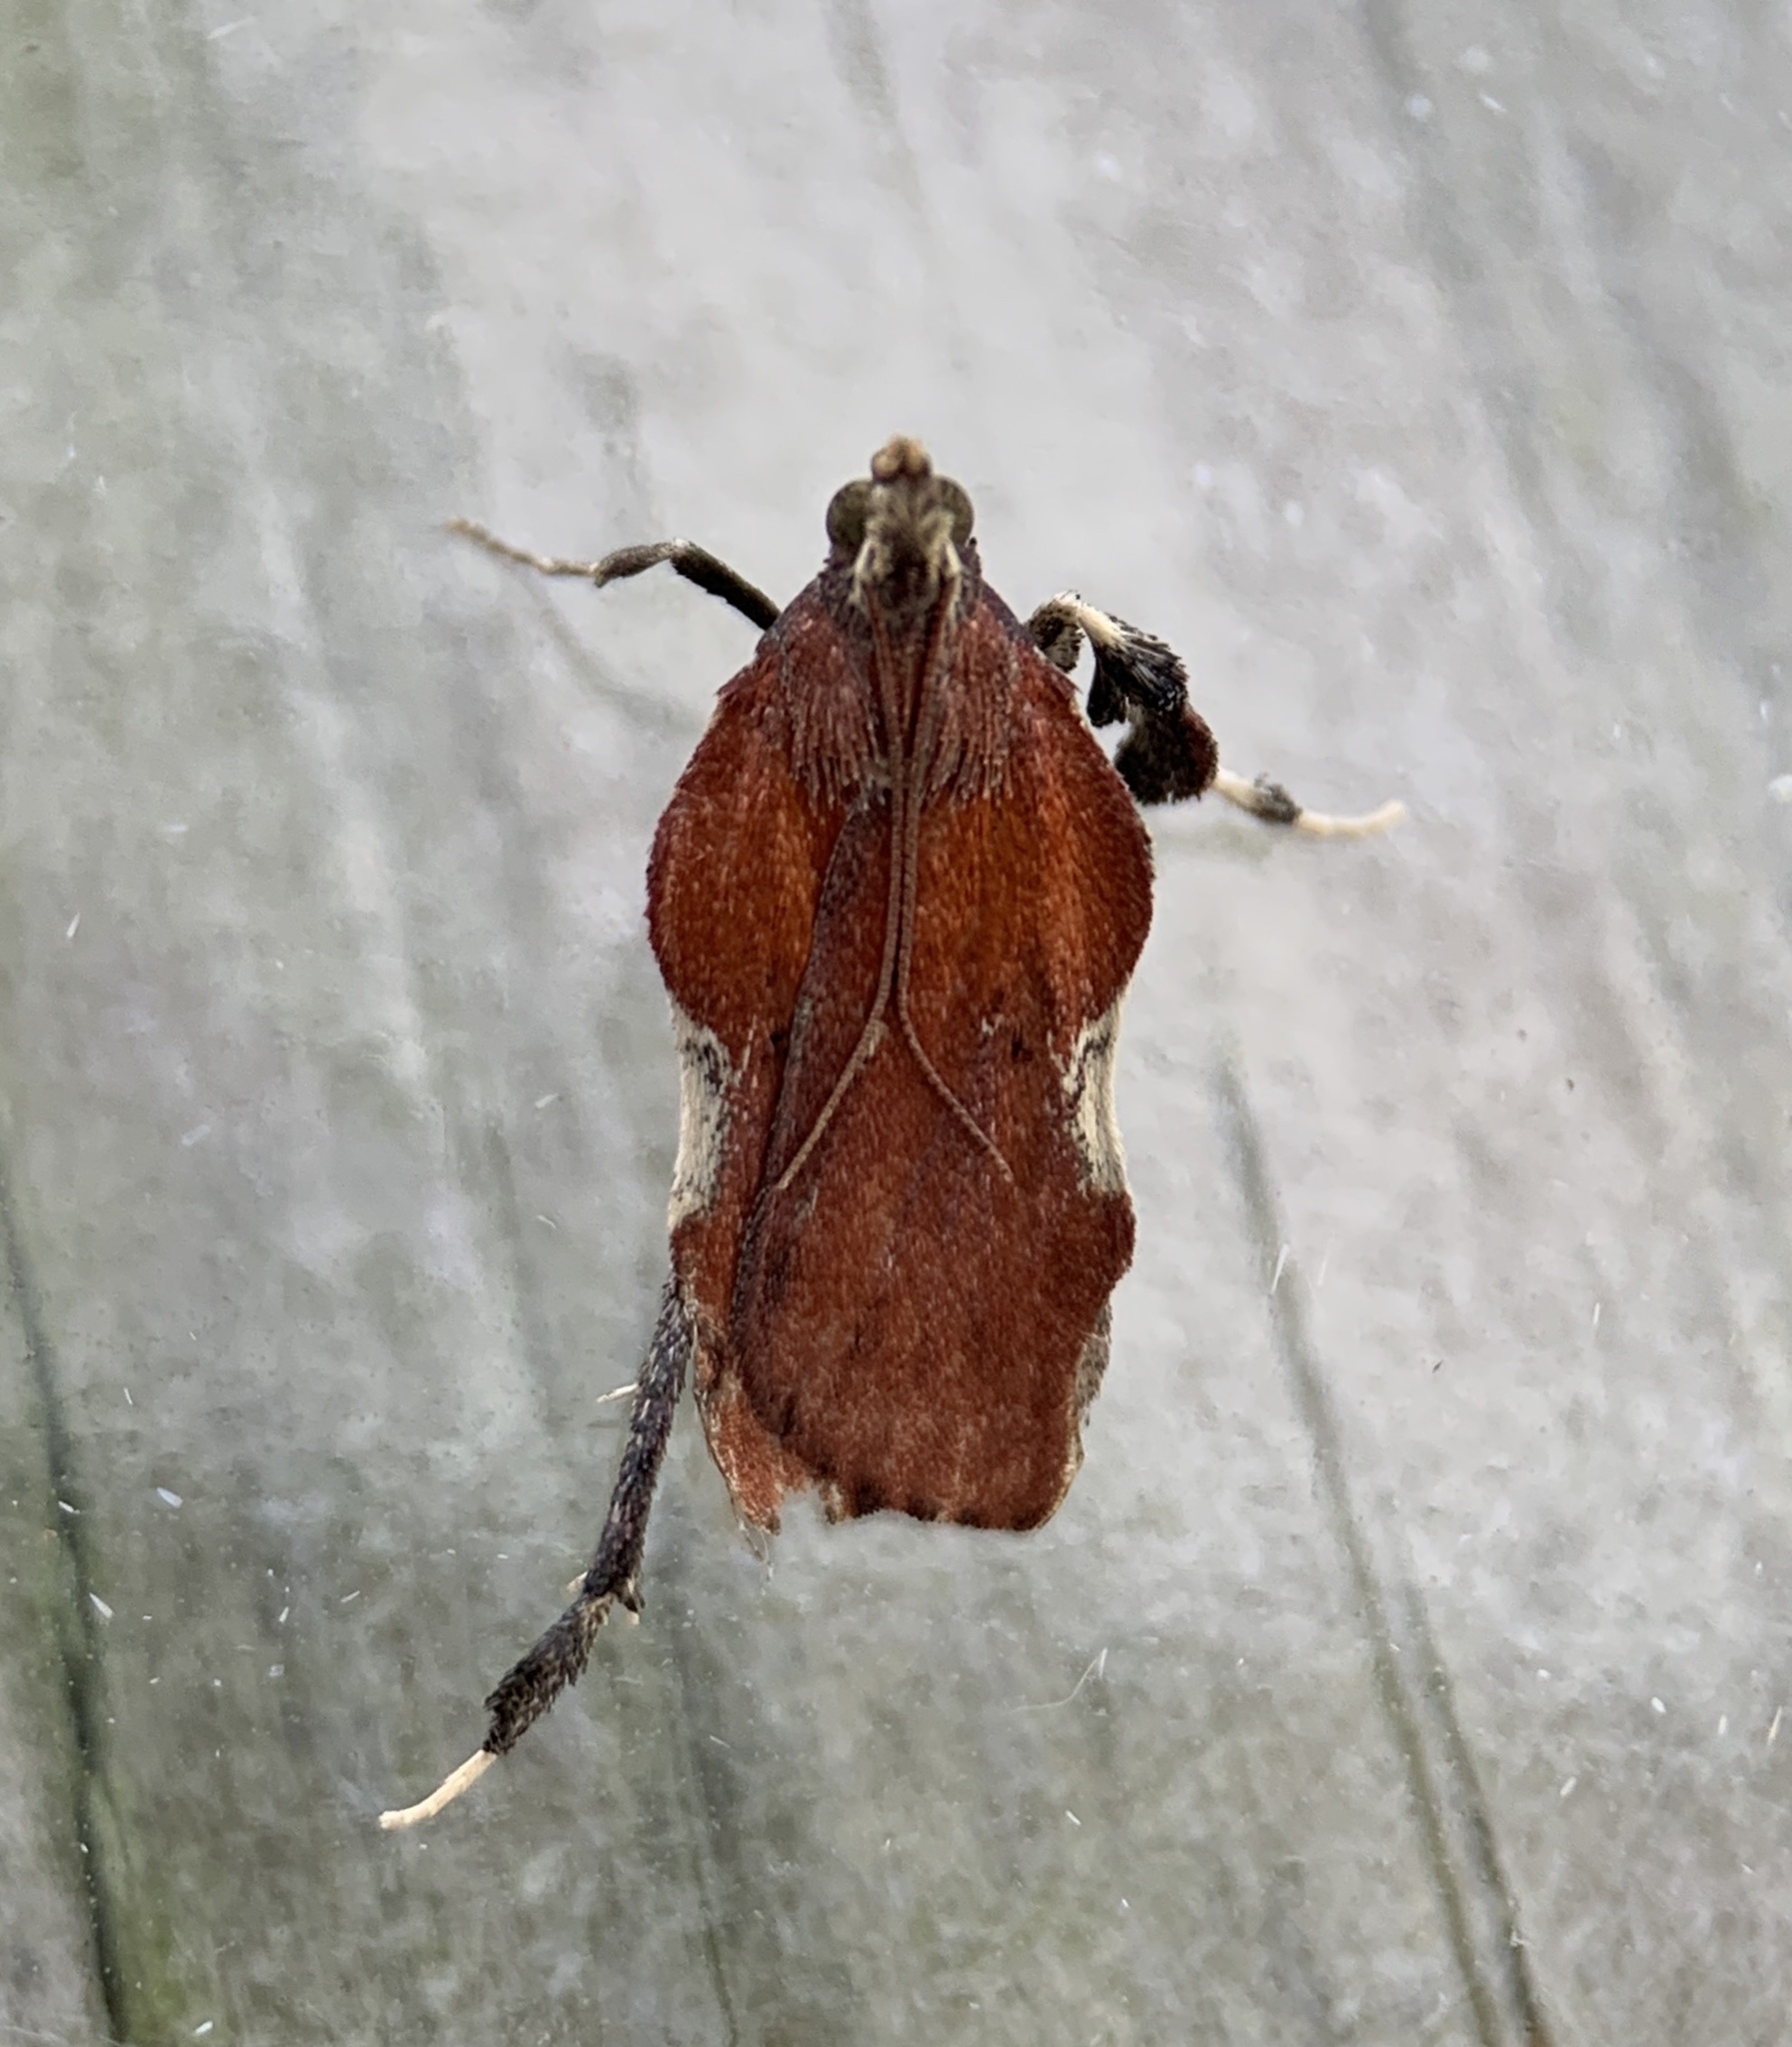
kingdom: Animalia
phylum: Arthropoda
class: Insecta
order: Lepidoptera
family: Pyralidae
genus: Galasa
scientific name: Galasa nigrinodis
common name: Boxwood leaftier moth
